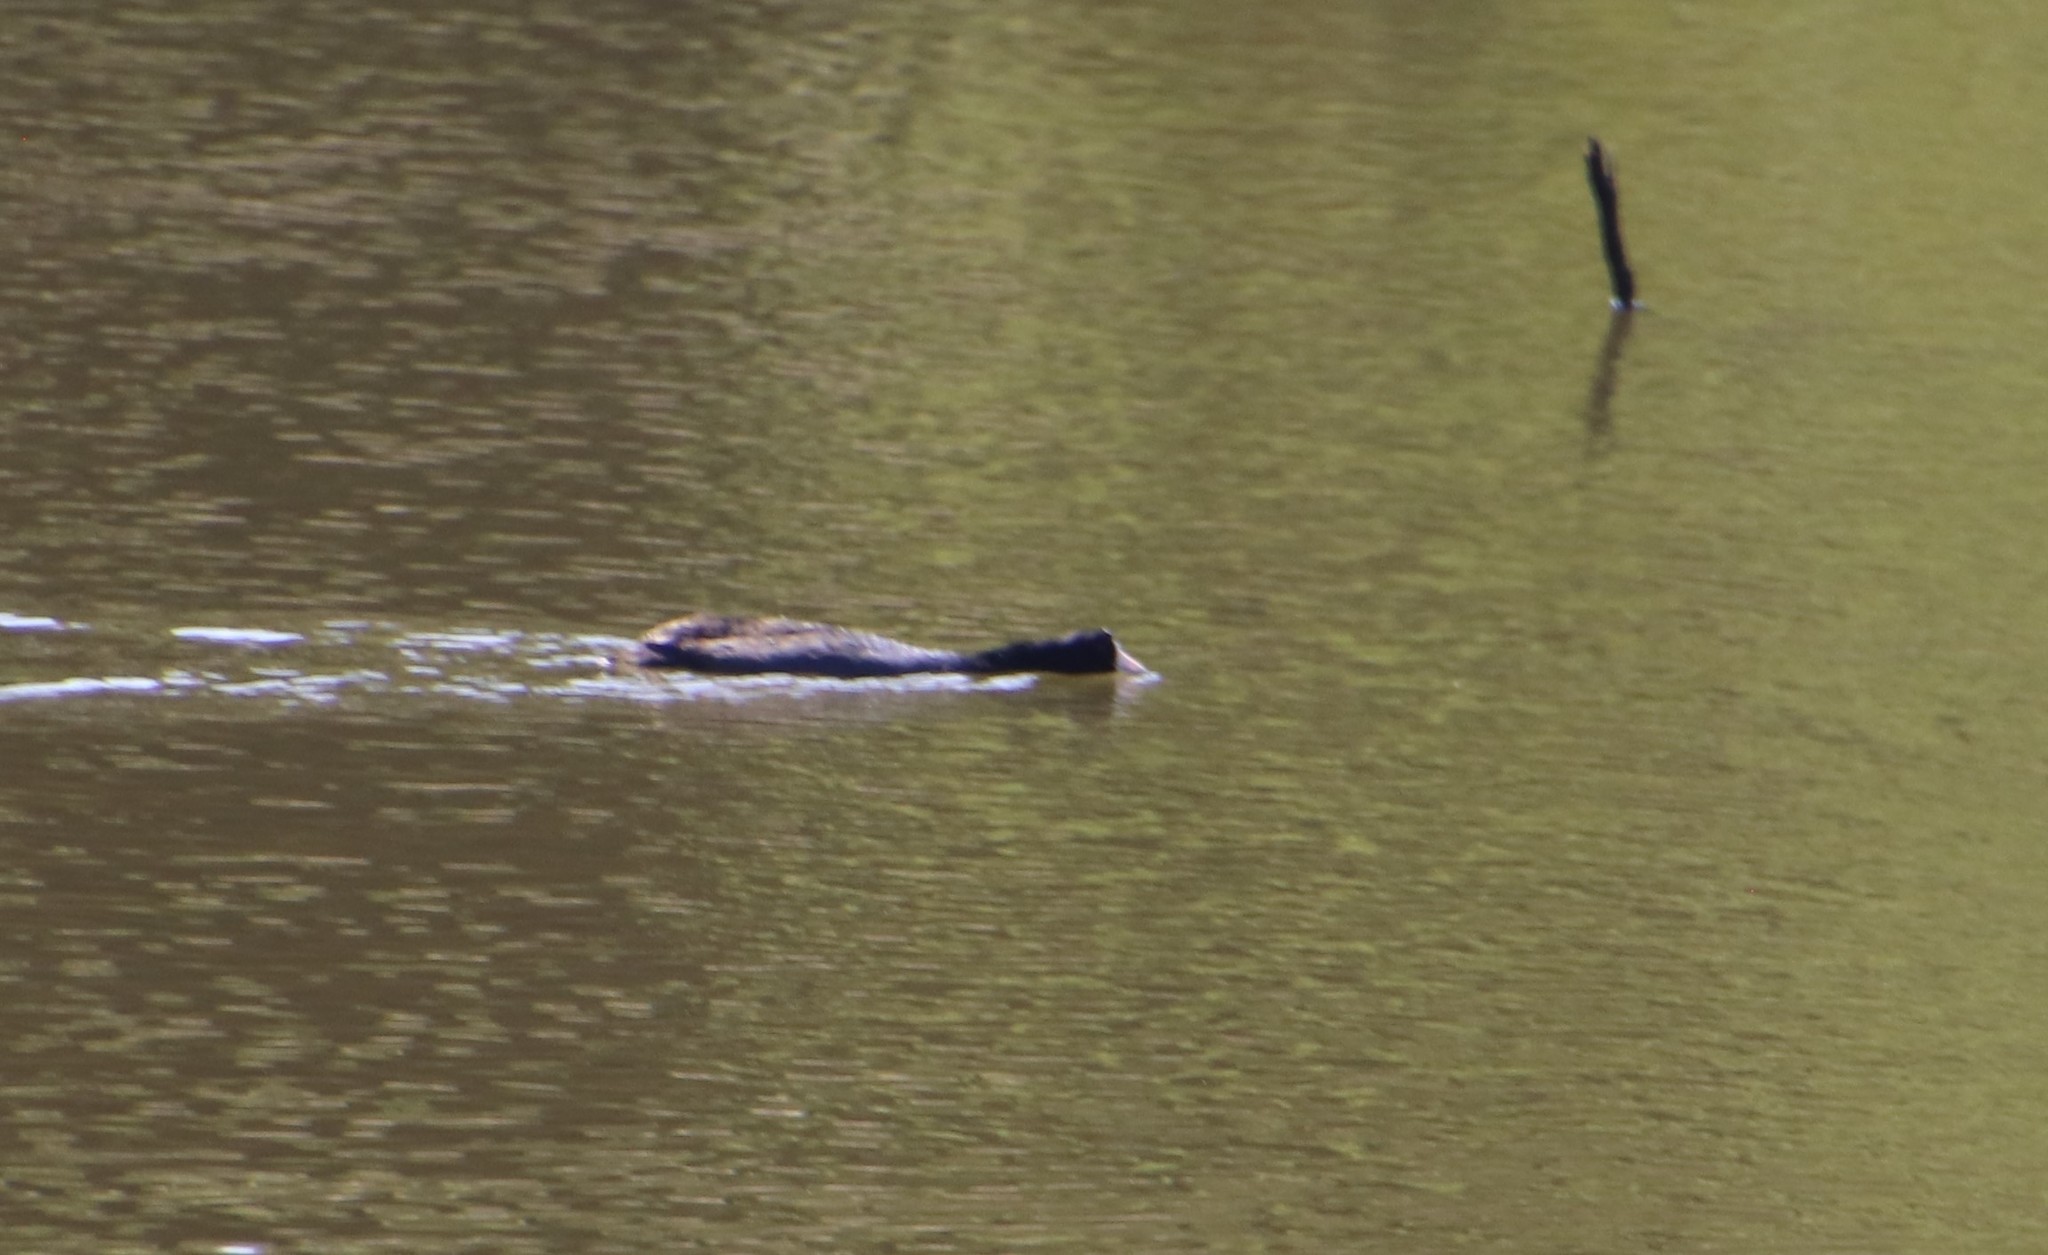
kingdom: Animalia
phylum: Chordata
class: Aves
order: Gruiformes
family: Rallidae
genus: Fulica
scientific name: Fulica americana
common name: American coot
